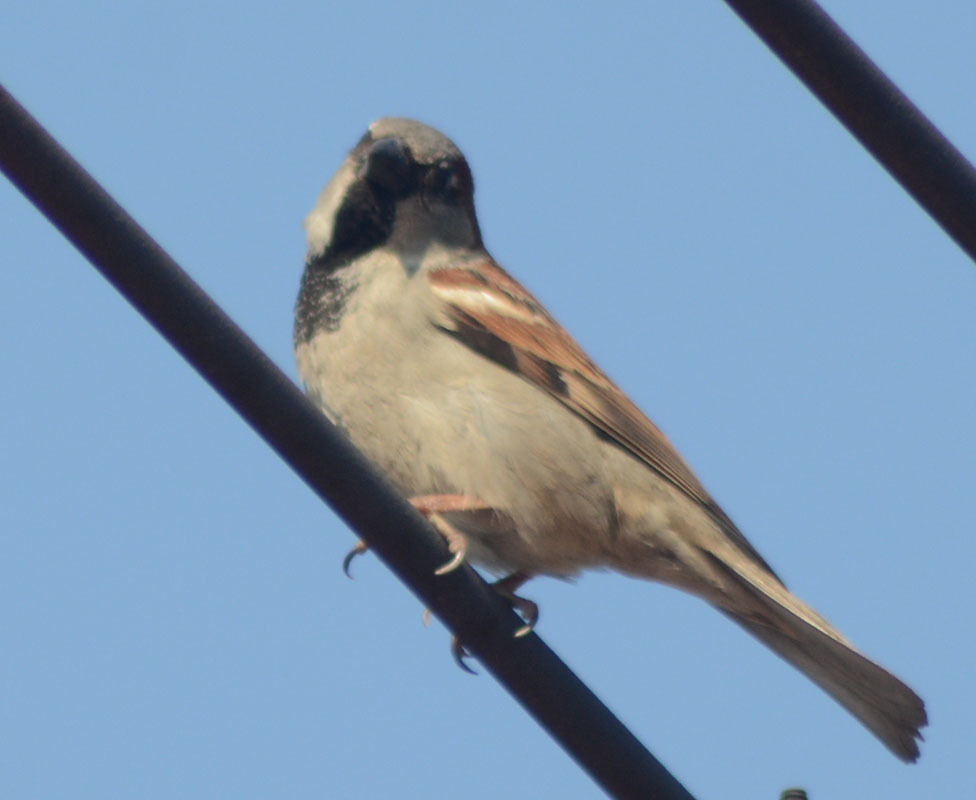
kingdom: Animalia
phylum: Chordata
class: Aves
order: Passeriformes
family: Passeridae
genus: Passer
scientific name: Passer domesticus
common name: House sparrow
